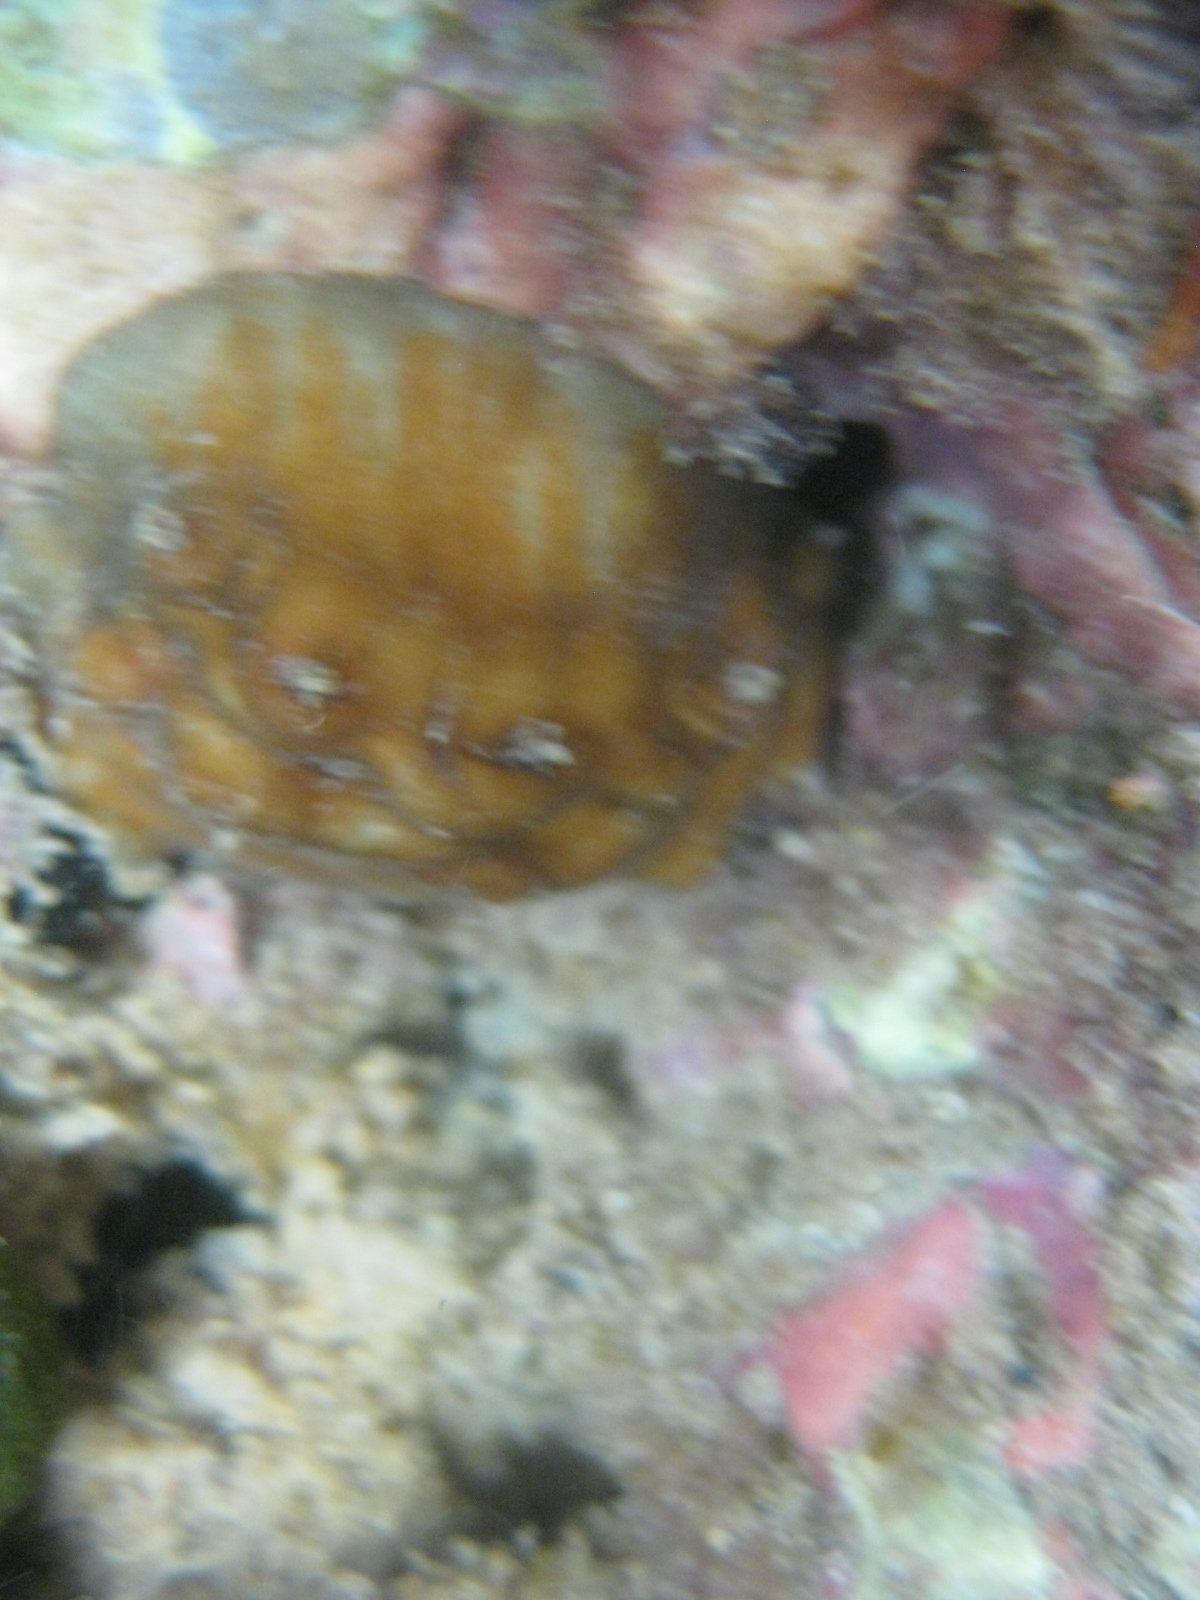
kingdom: Animalia
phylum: Mollusca
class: Polyplacophora
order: Chitonida
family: Acanthochitonidae
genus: Cryptoconchus
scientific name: Cryptoconchus porosus
